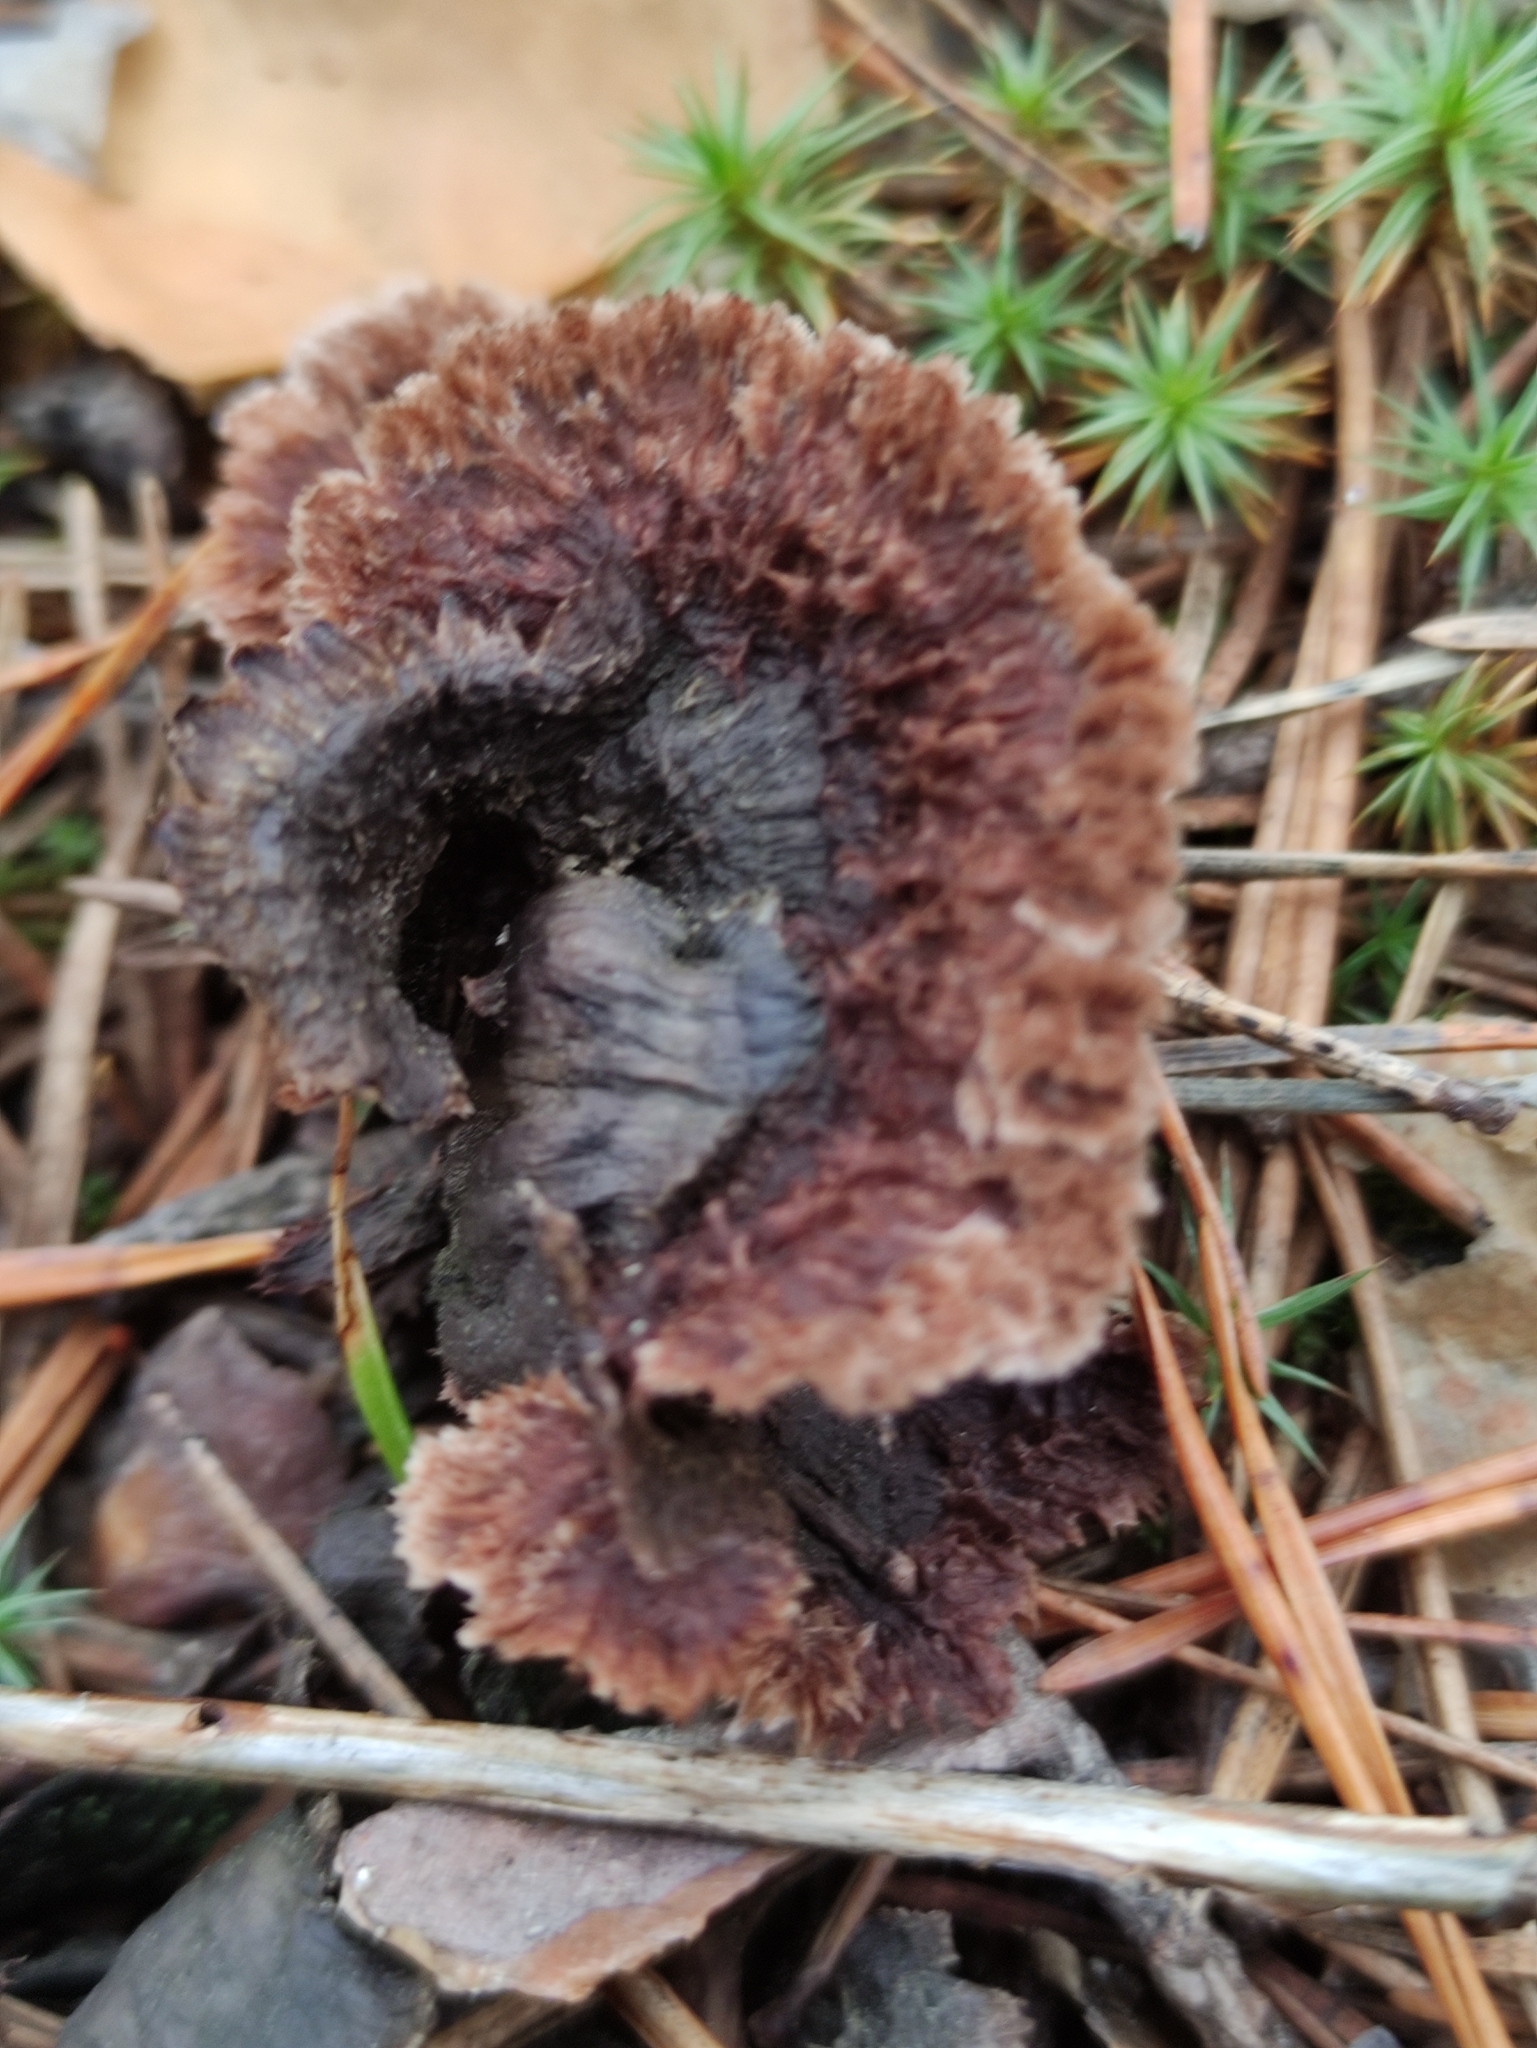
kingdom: Fungi
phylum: Basidiomycota
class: Agaricomycetes
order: Thelephorales
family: Thelephoraceae
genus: Thelephora
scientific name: Thelephora terrestris
